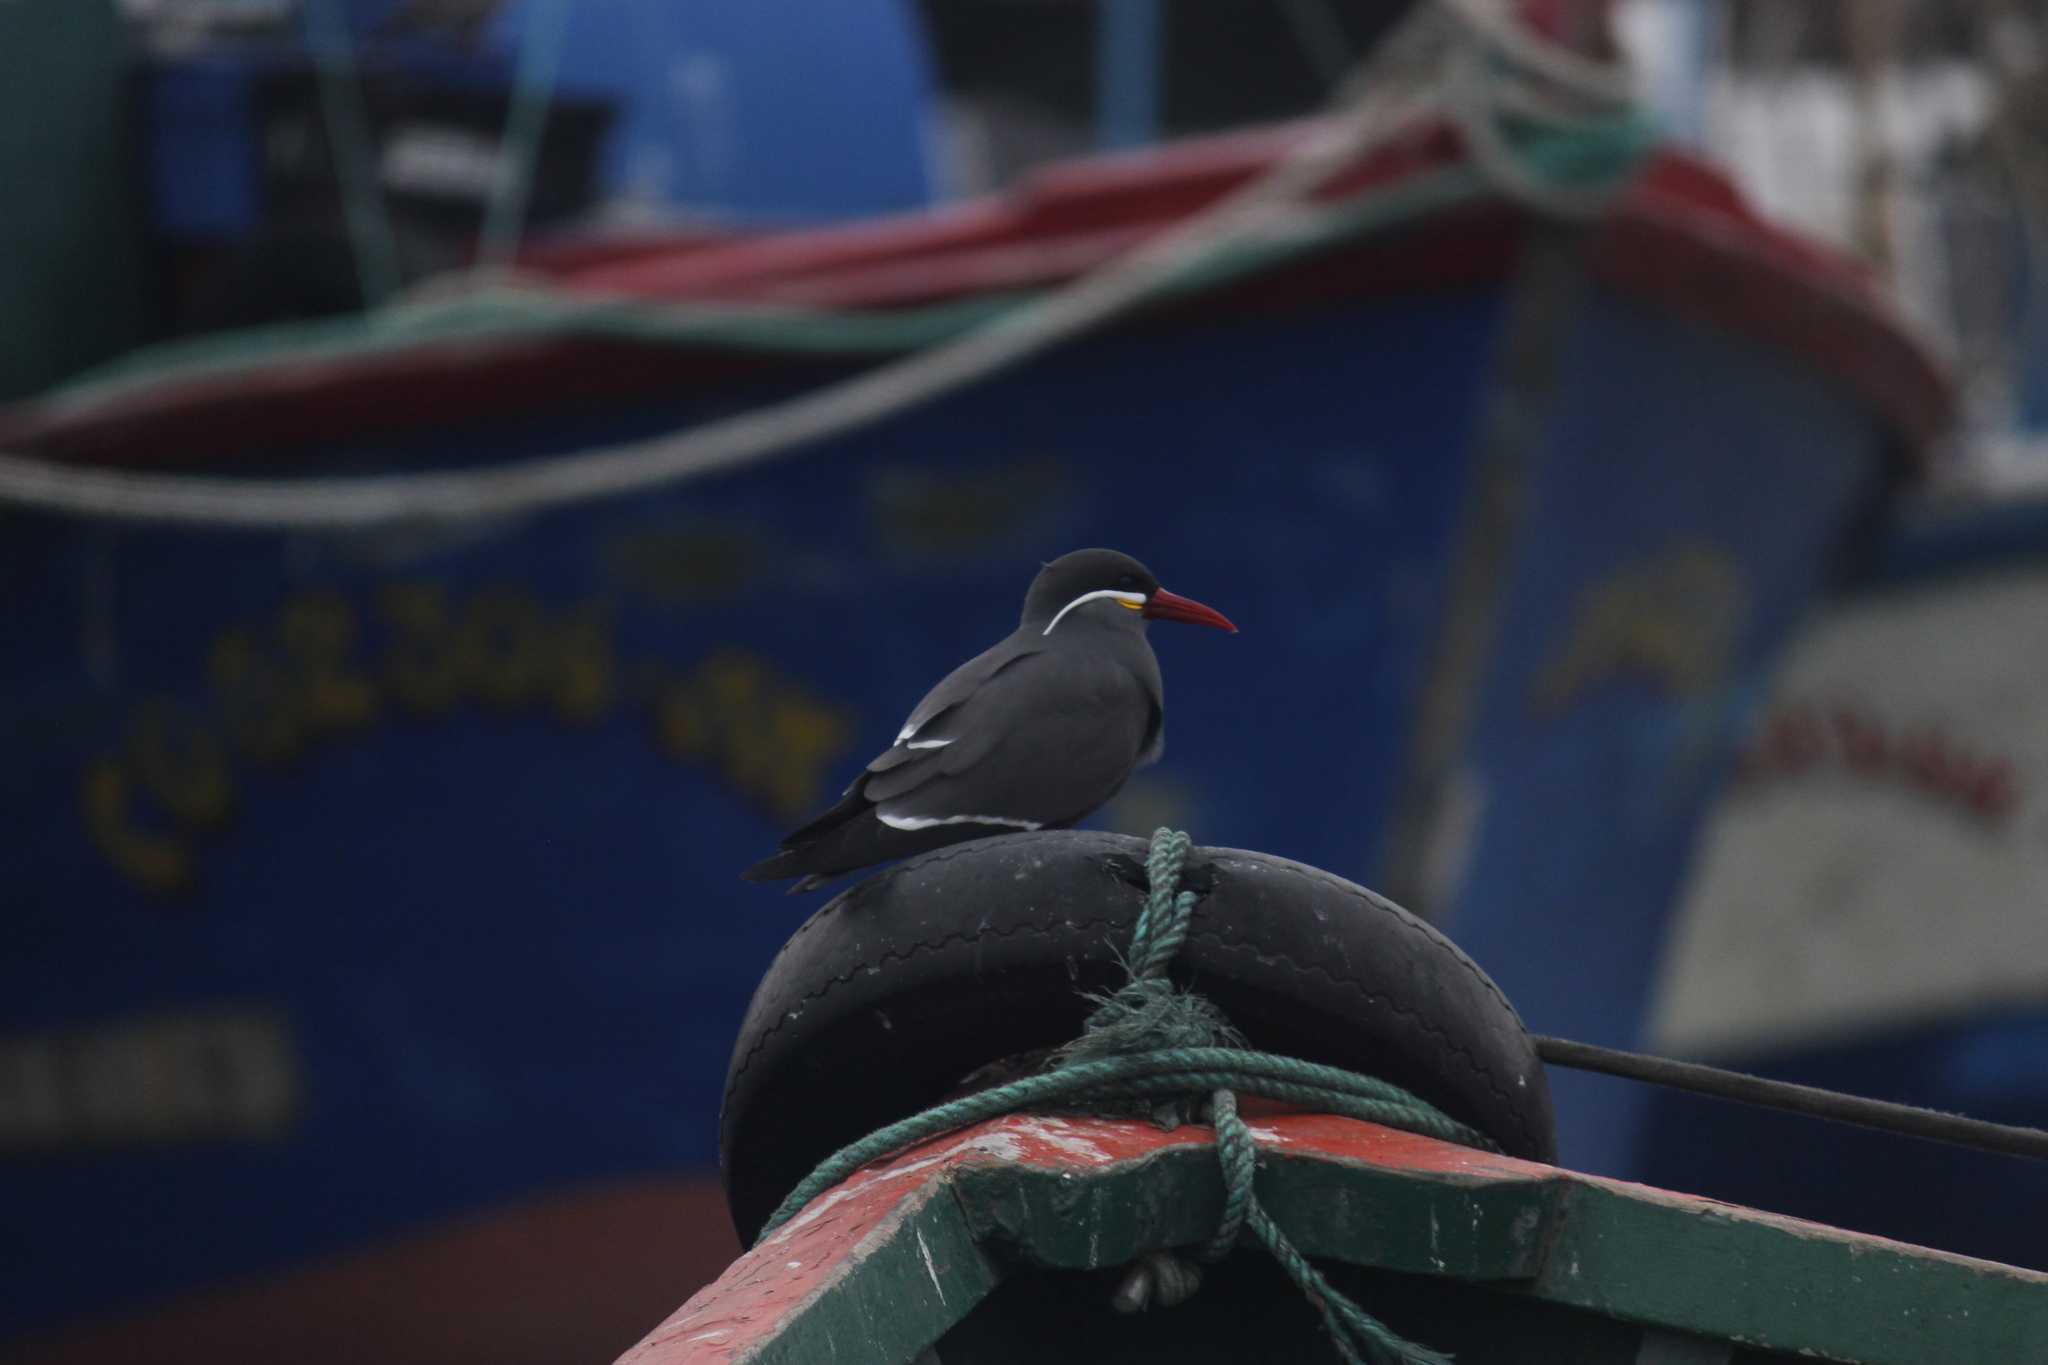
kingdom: Animalia
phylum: Chordata
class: Aves
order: Charadriiformes
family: Laridae
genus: Larosterna
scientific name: Larosterna inca
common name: Inca tern
